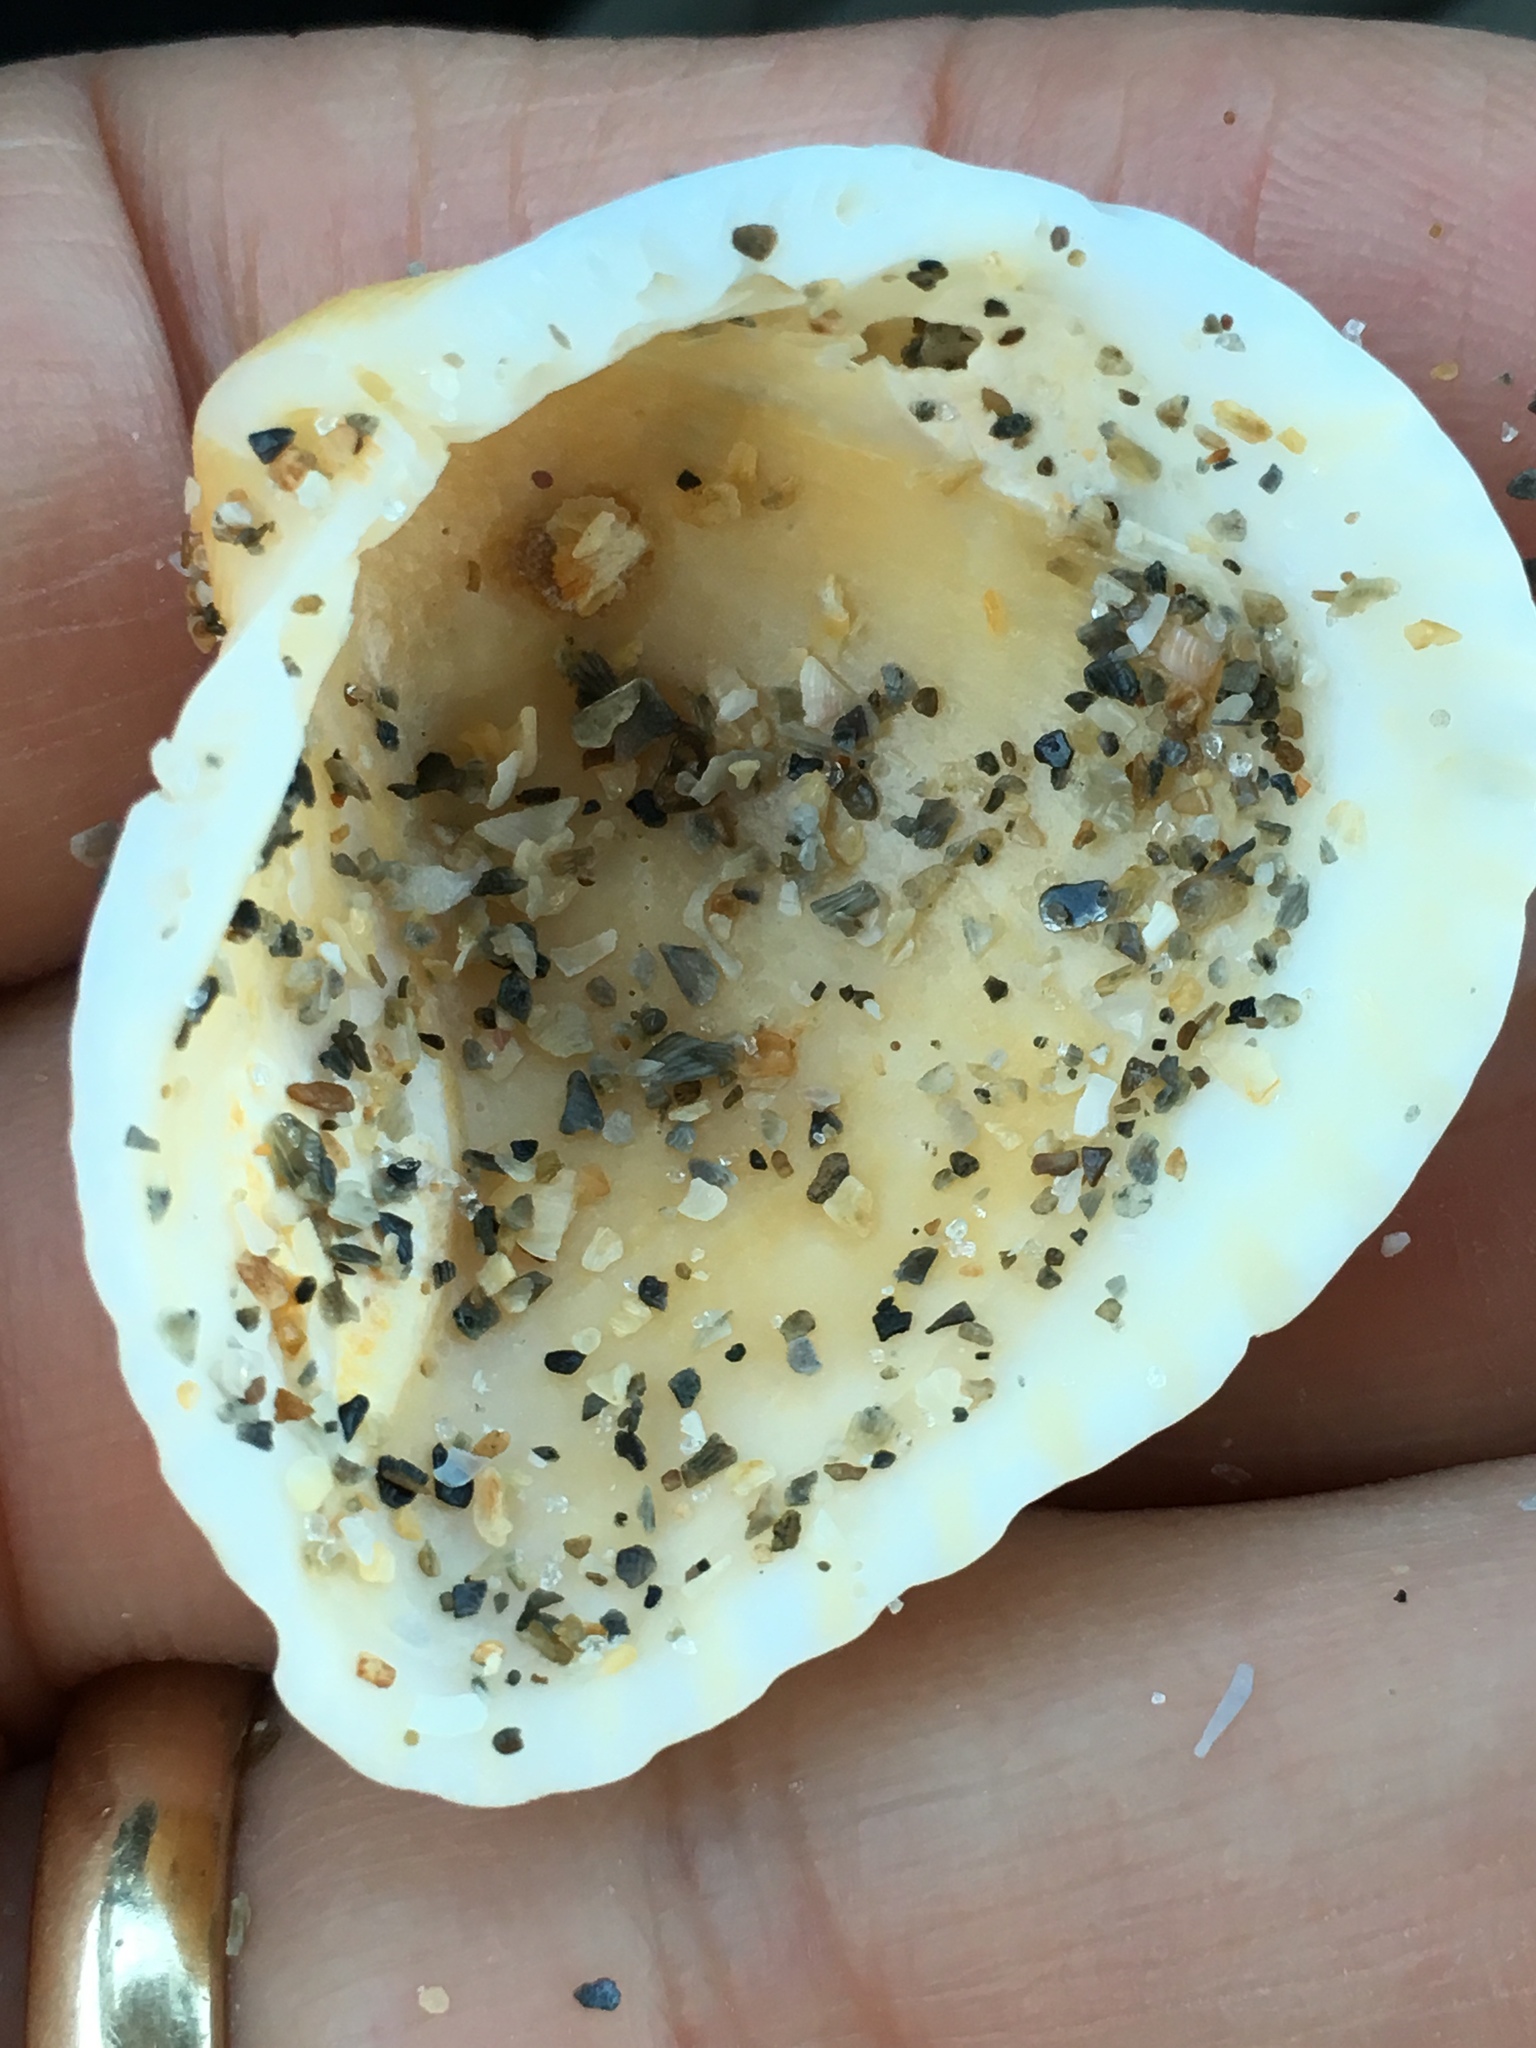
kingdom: Animalia
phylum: Mollusca
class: Bivalvia
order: Arcida
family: Noetiidae
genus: Noetia
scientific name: Noetia ponderosa
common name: Ponderous ark
